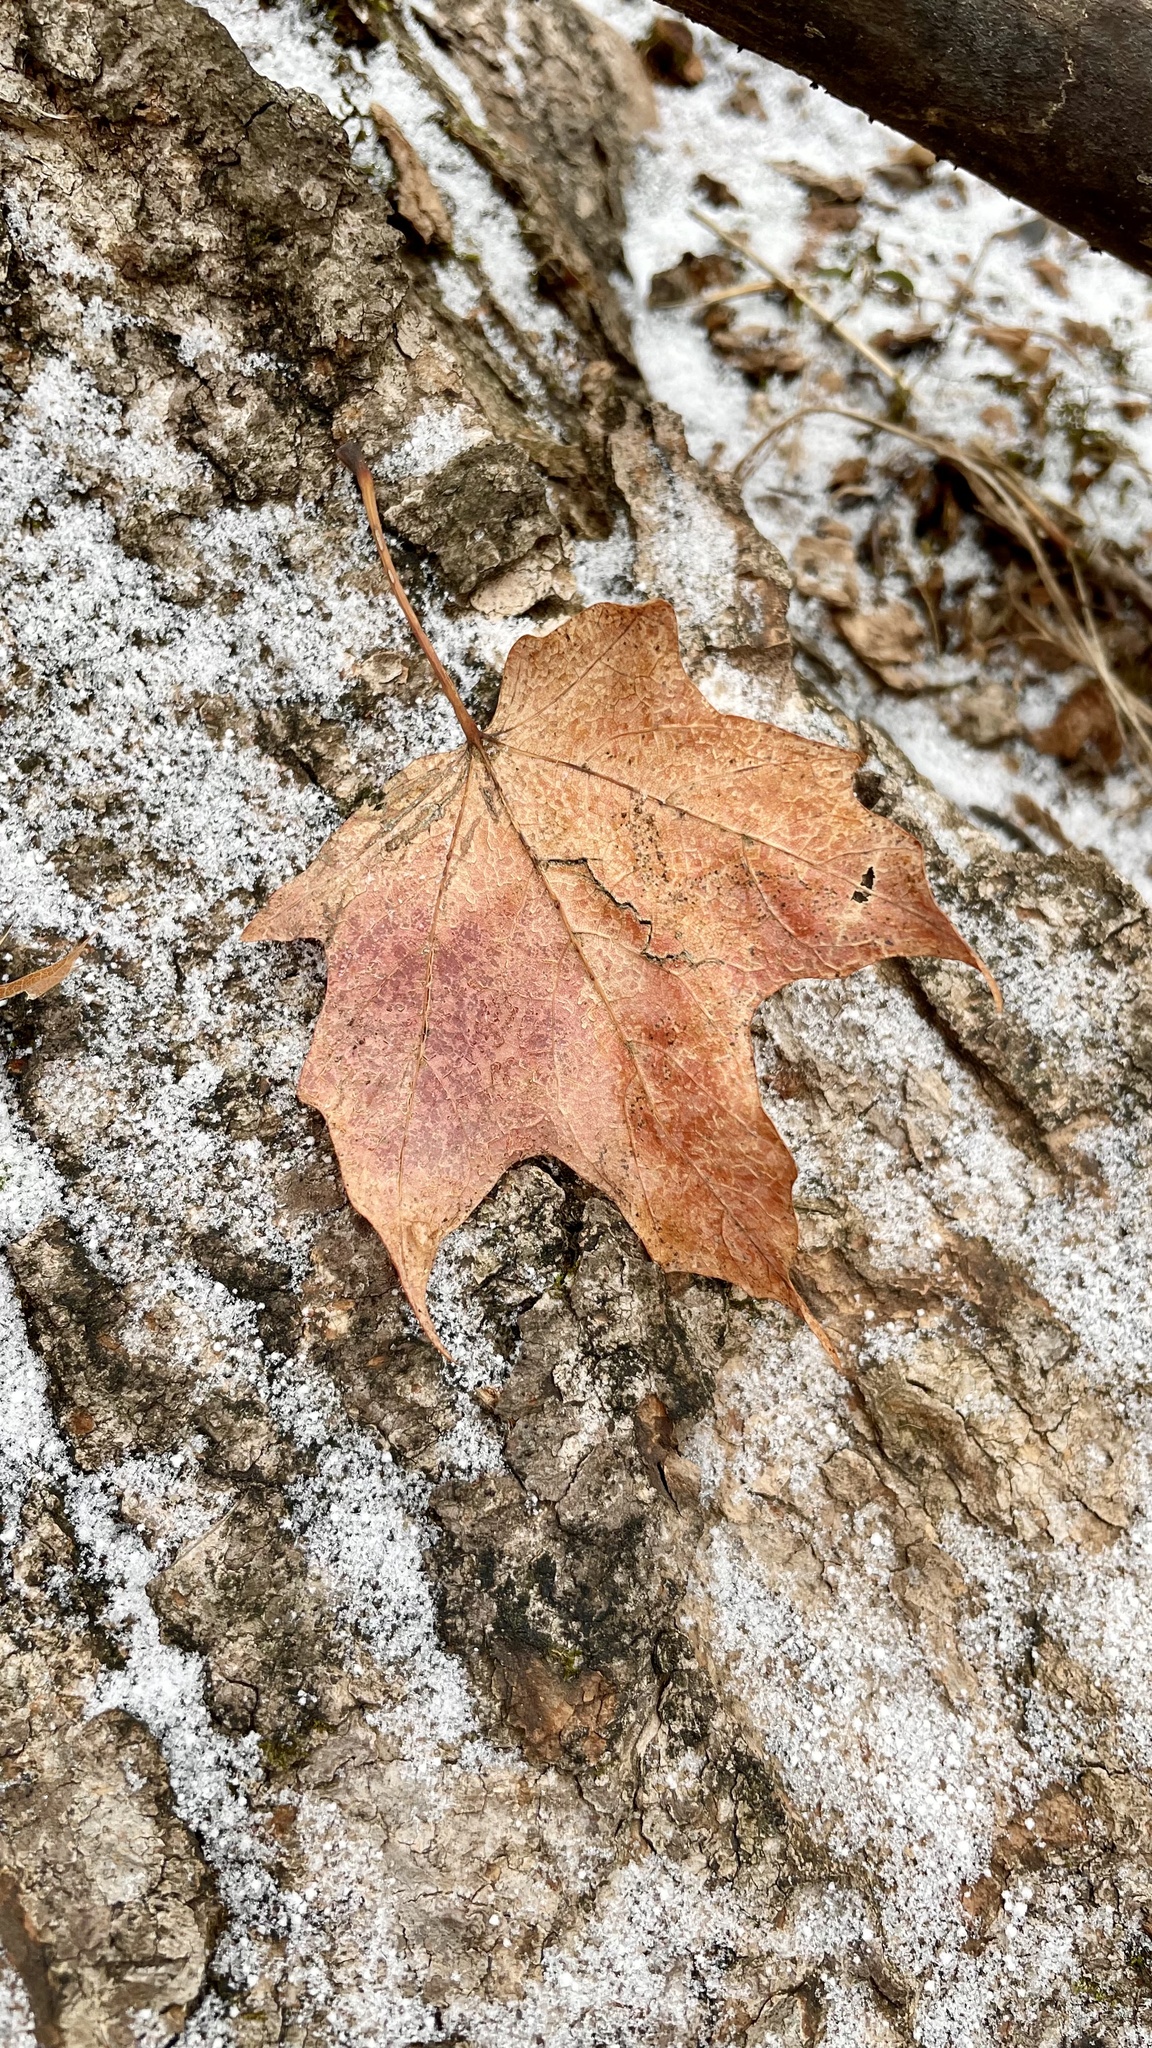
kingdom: Plantae
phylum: Tracheophyta
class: Magnoliopsida
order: Sapindales
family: Sapindaceae
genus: Acer
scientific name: Acer saccharum
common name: Sugar maple
